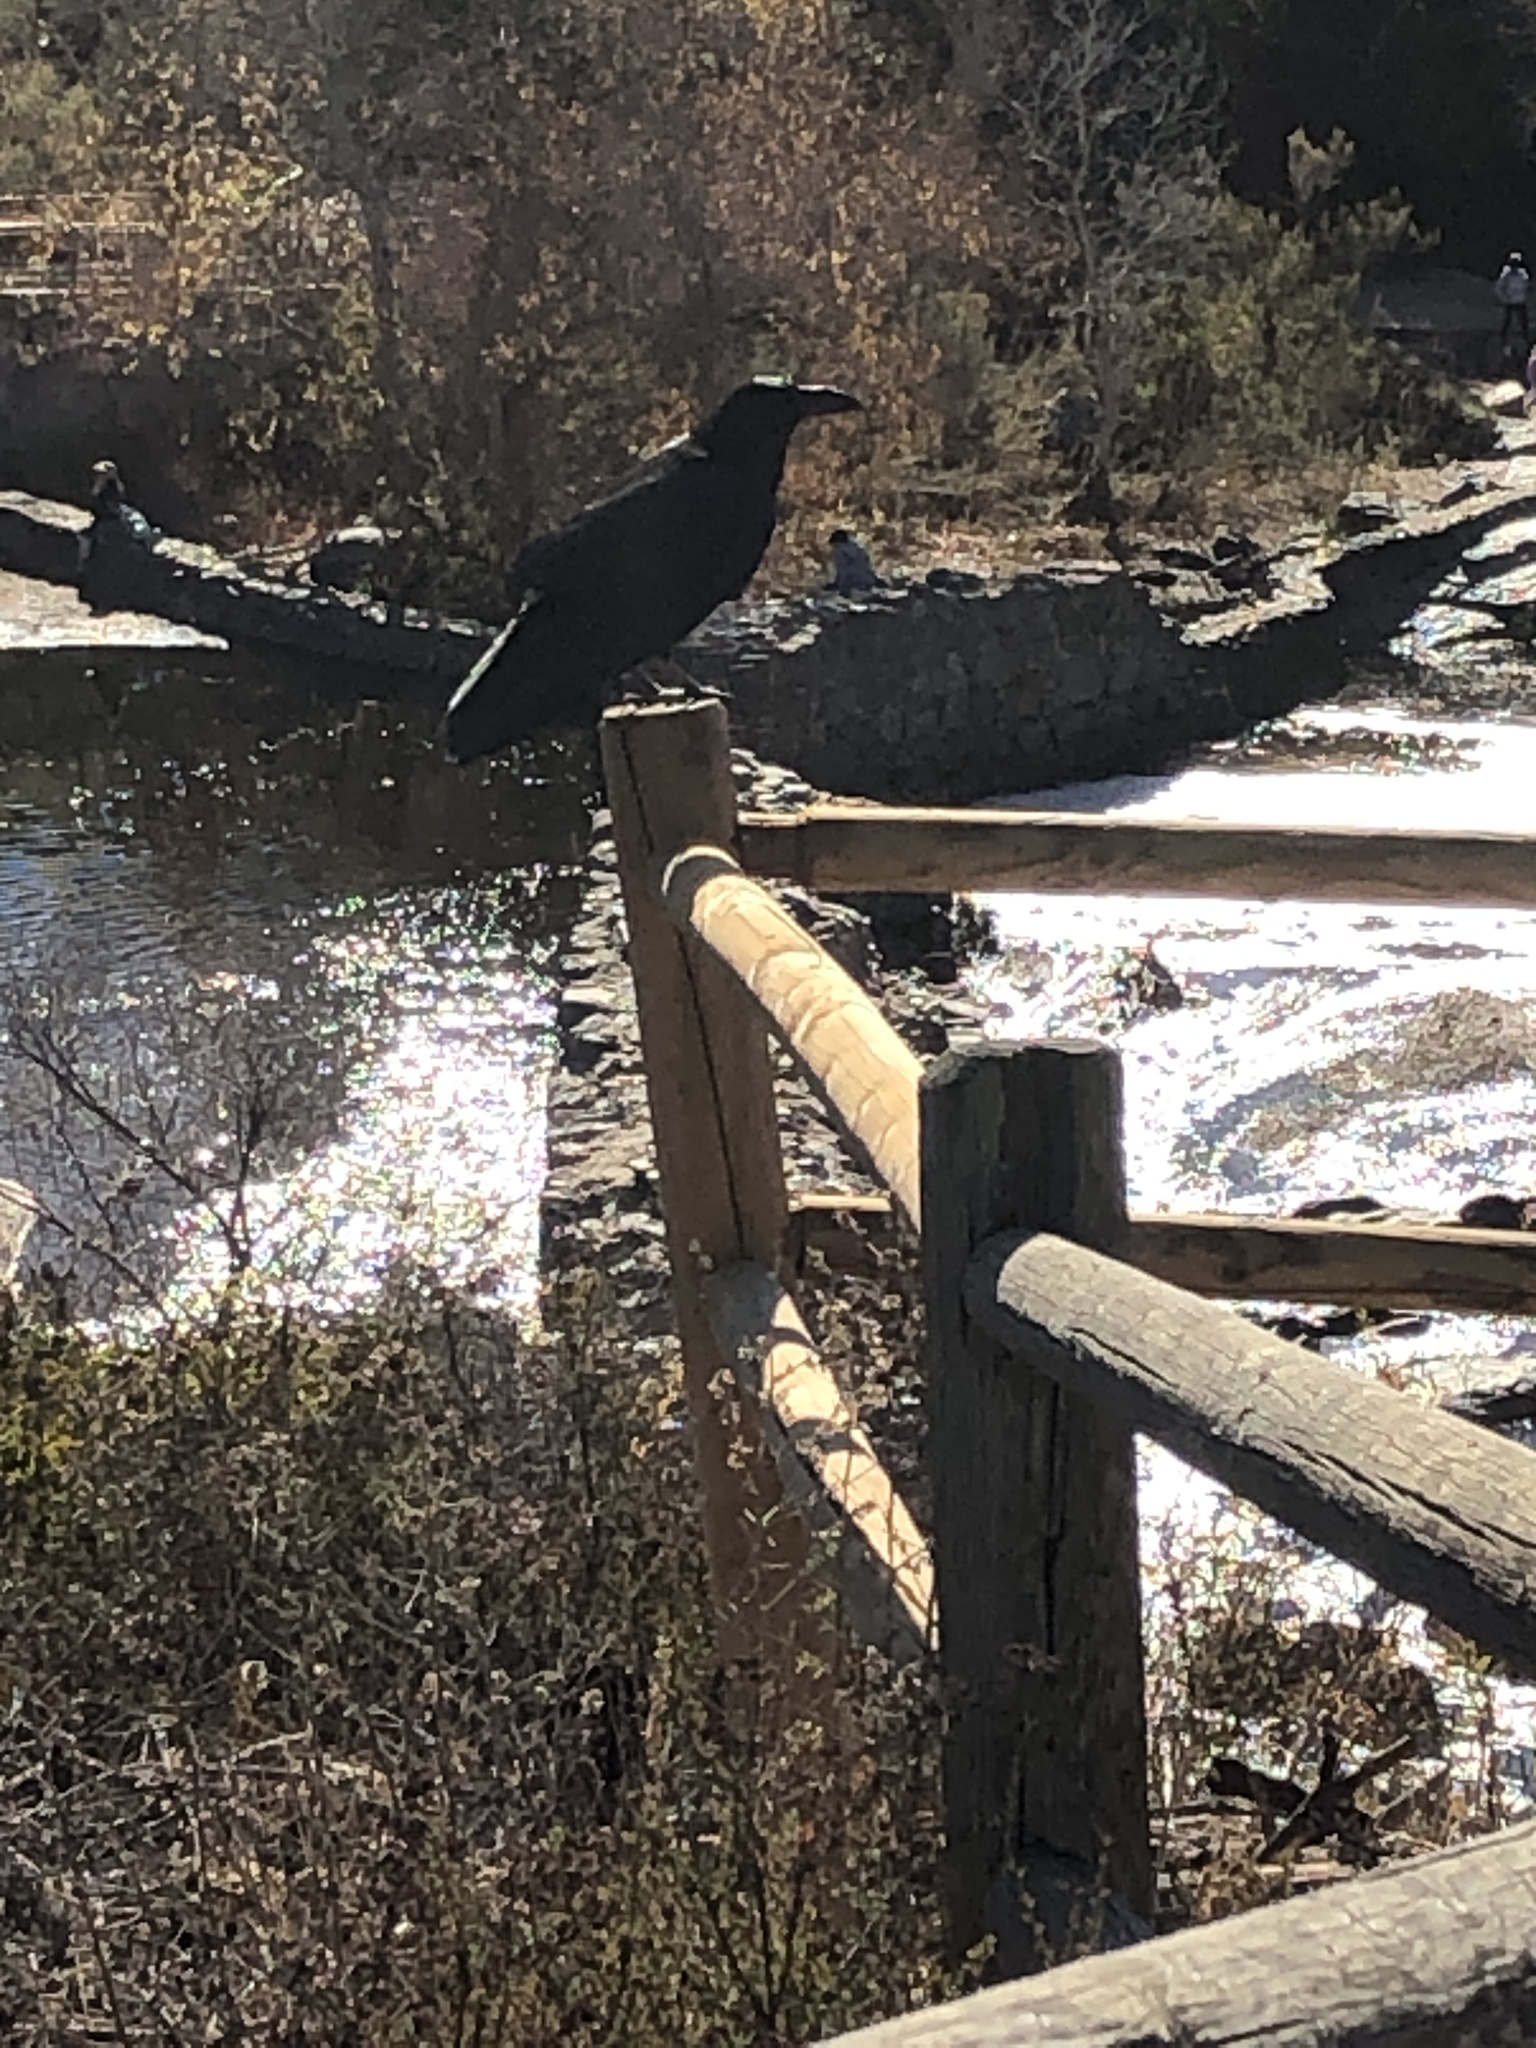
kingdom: Animalia
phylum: Chordata
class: Aves
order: Passeriformes
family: Corvidae
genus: Corvus
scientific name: Corvus corax
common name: Common raven
